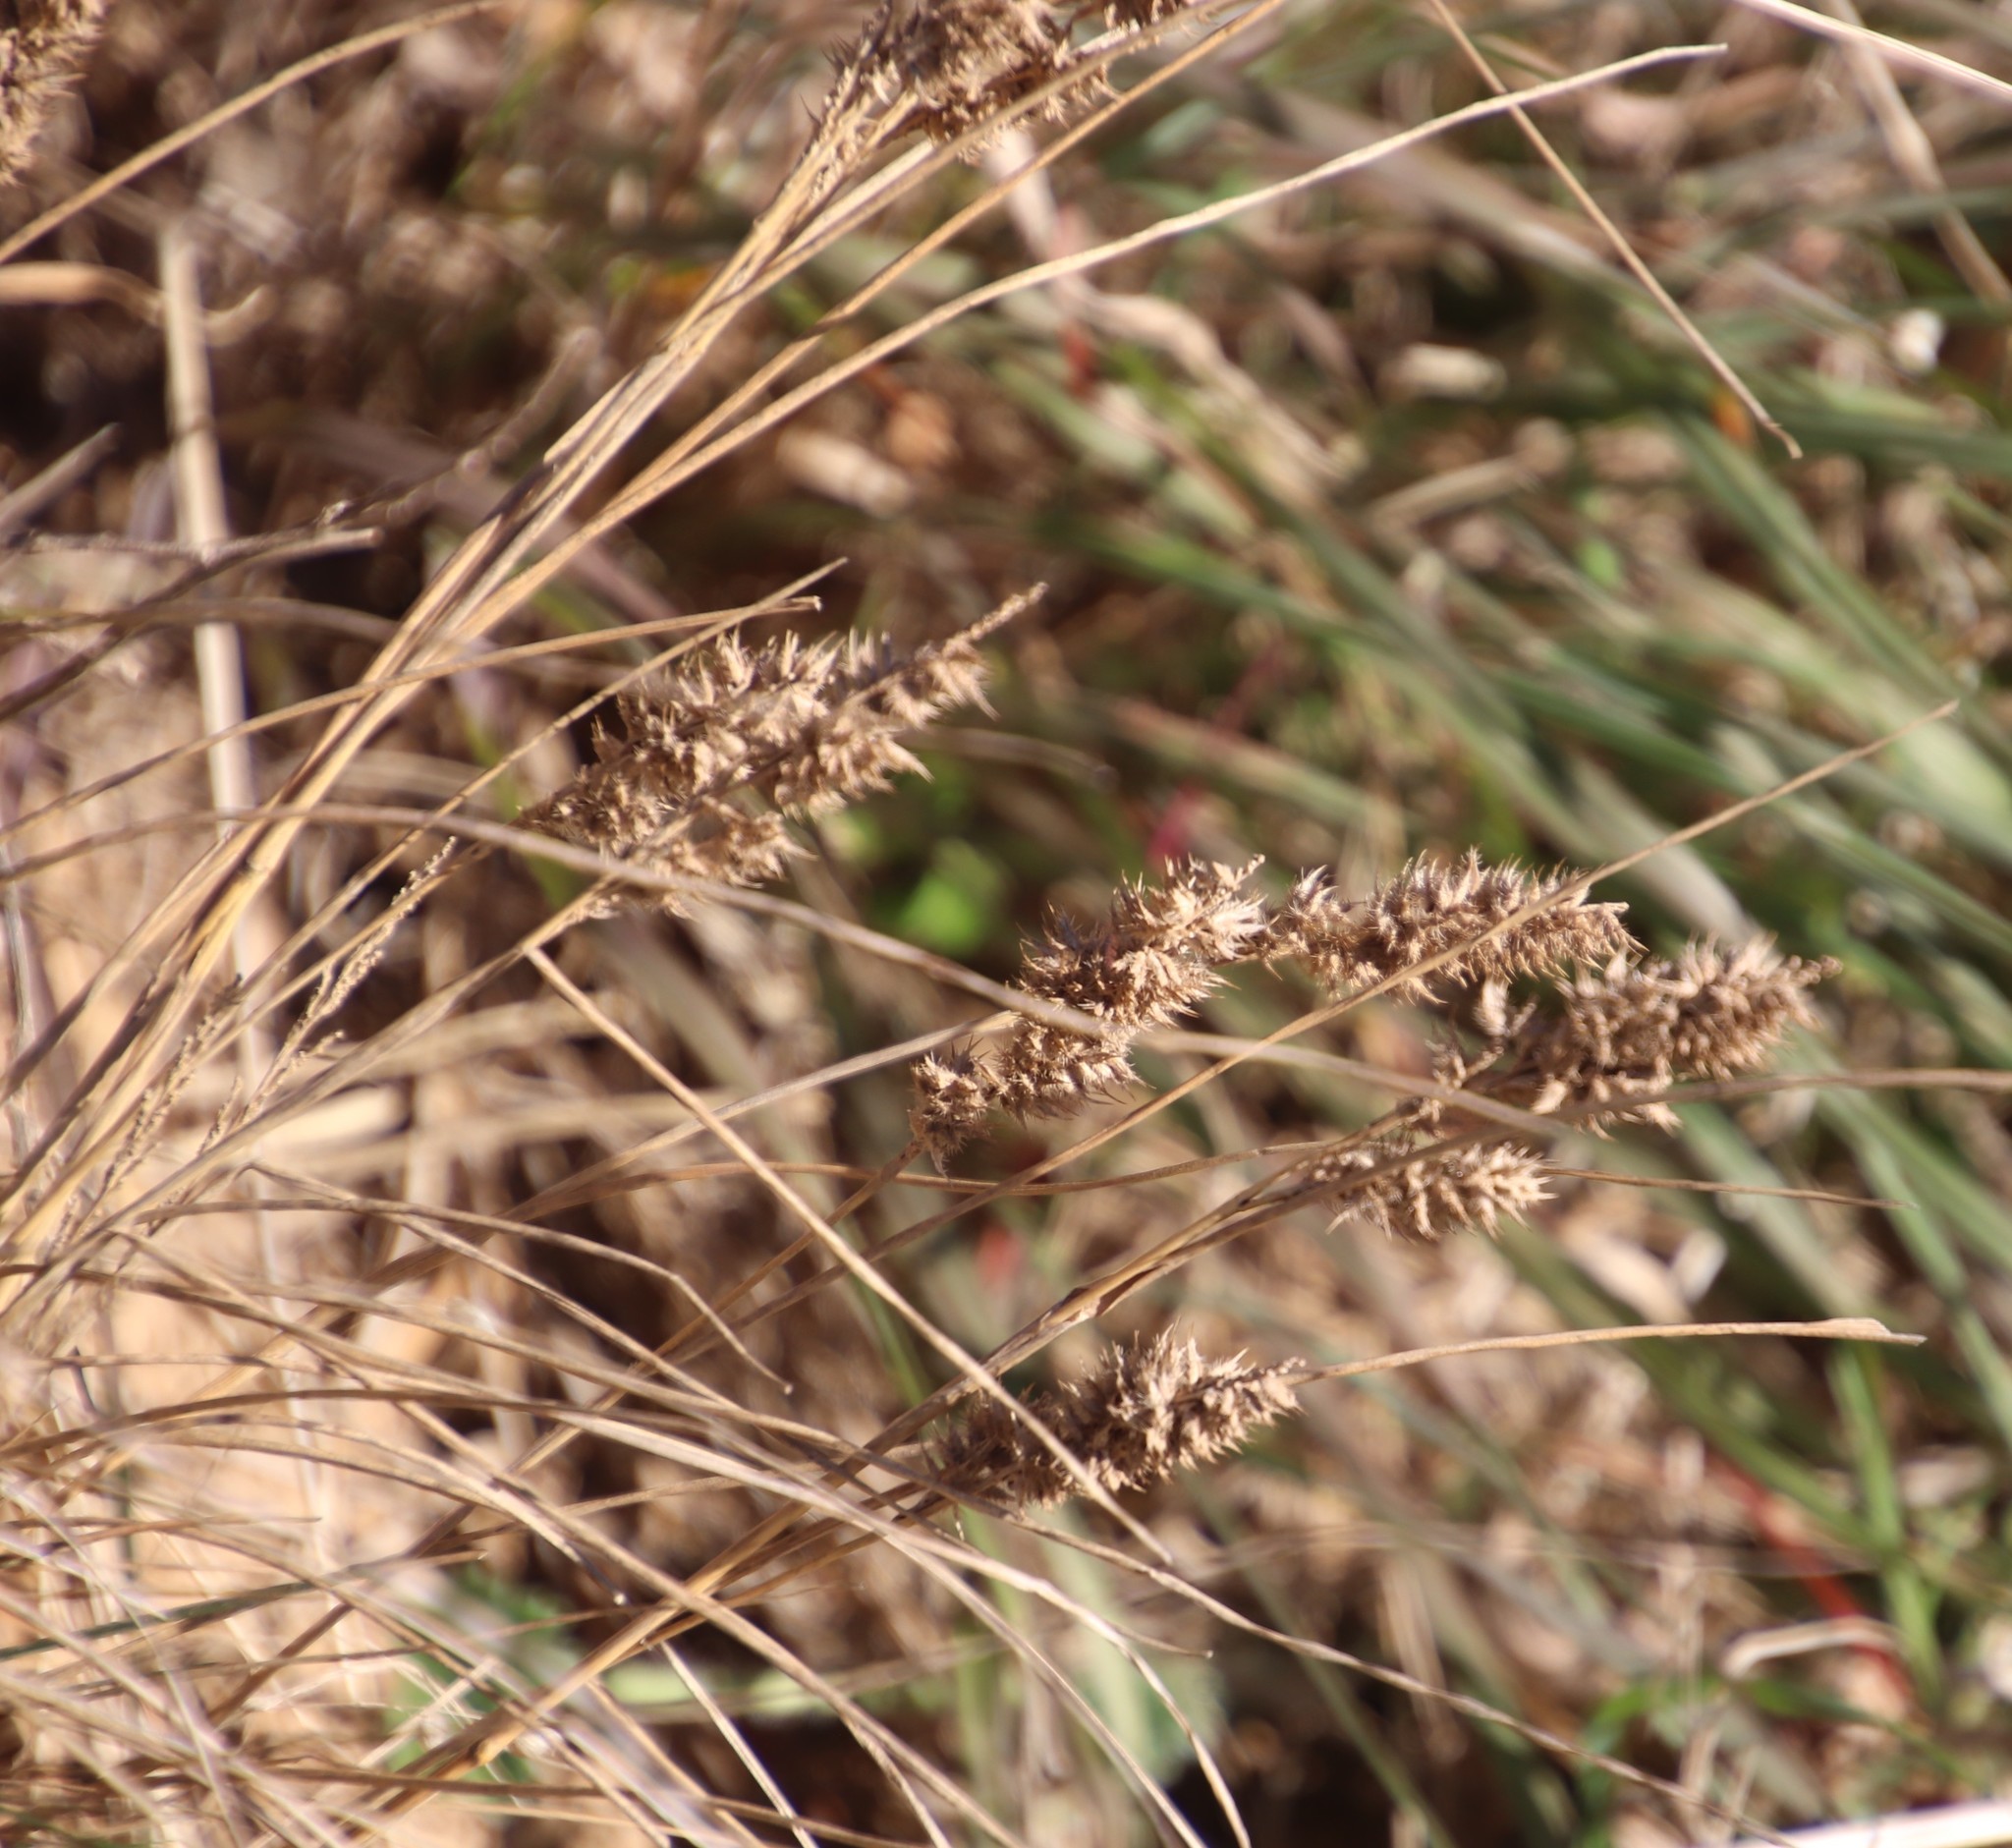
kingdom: Plantae
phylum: Tracheophyta
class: Liliopsida
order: Poales
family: Poaceae
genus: Tribolium
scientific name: Tribolium hispidum
